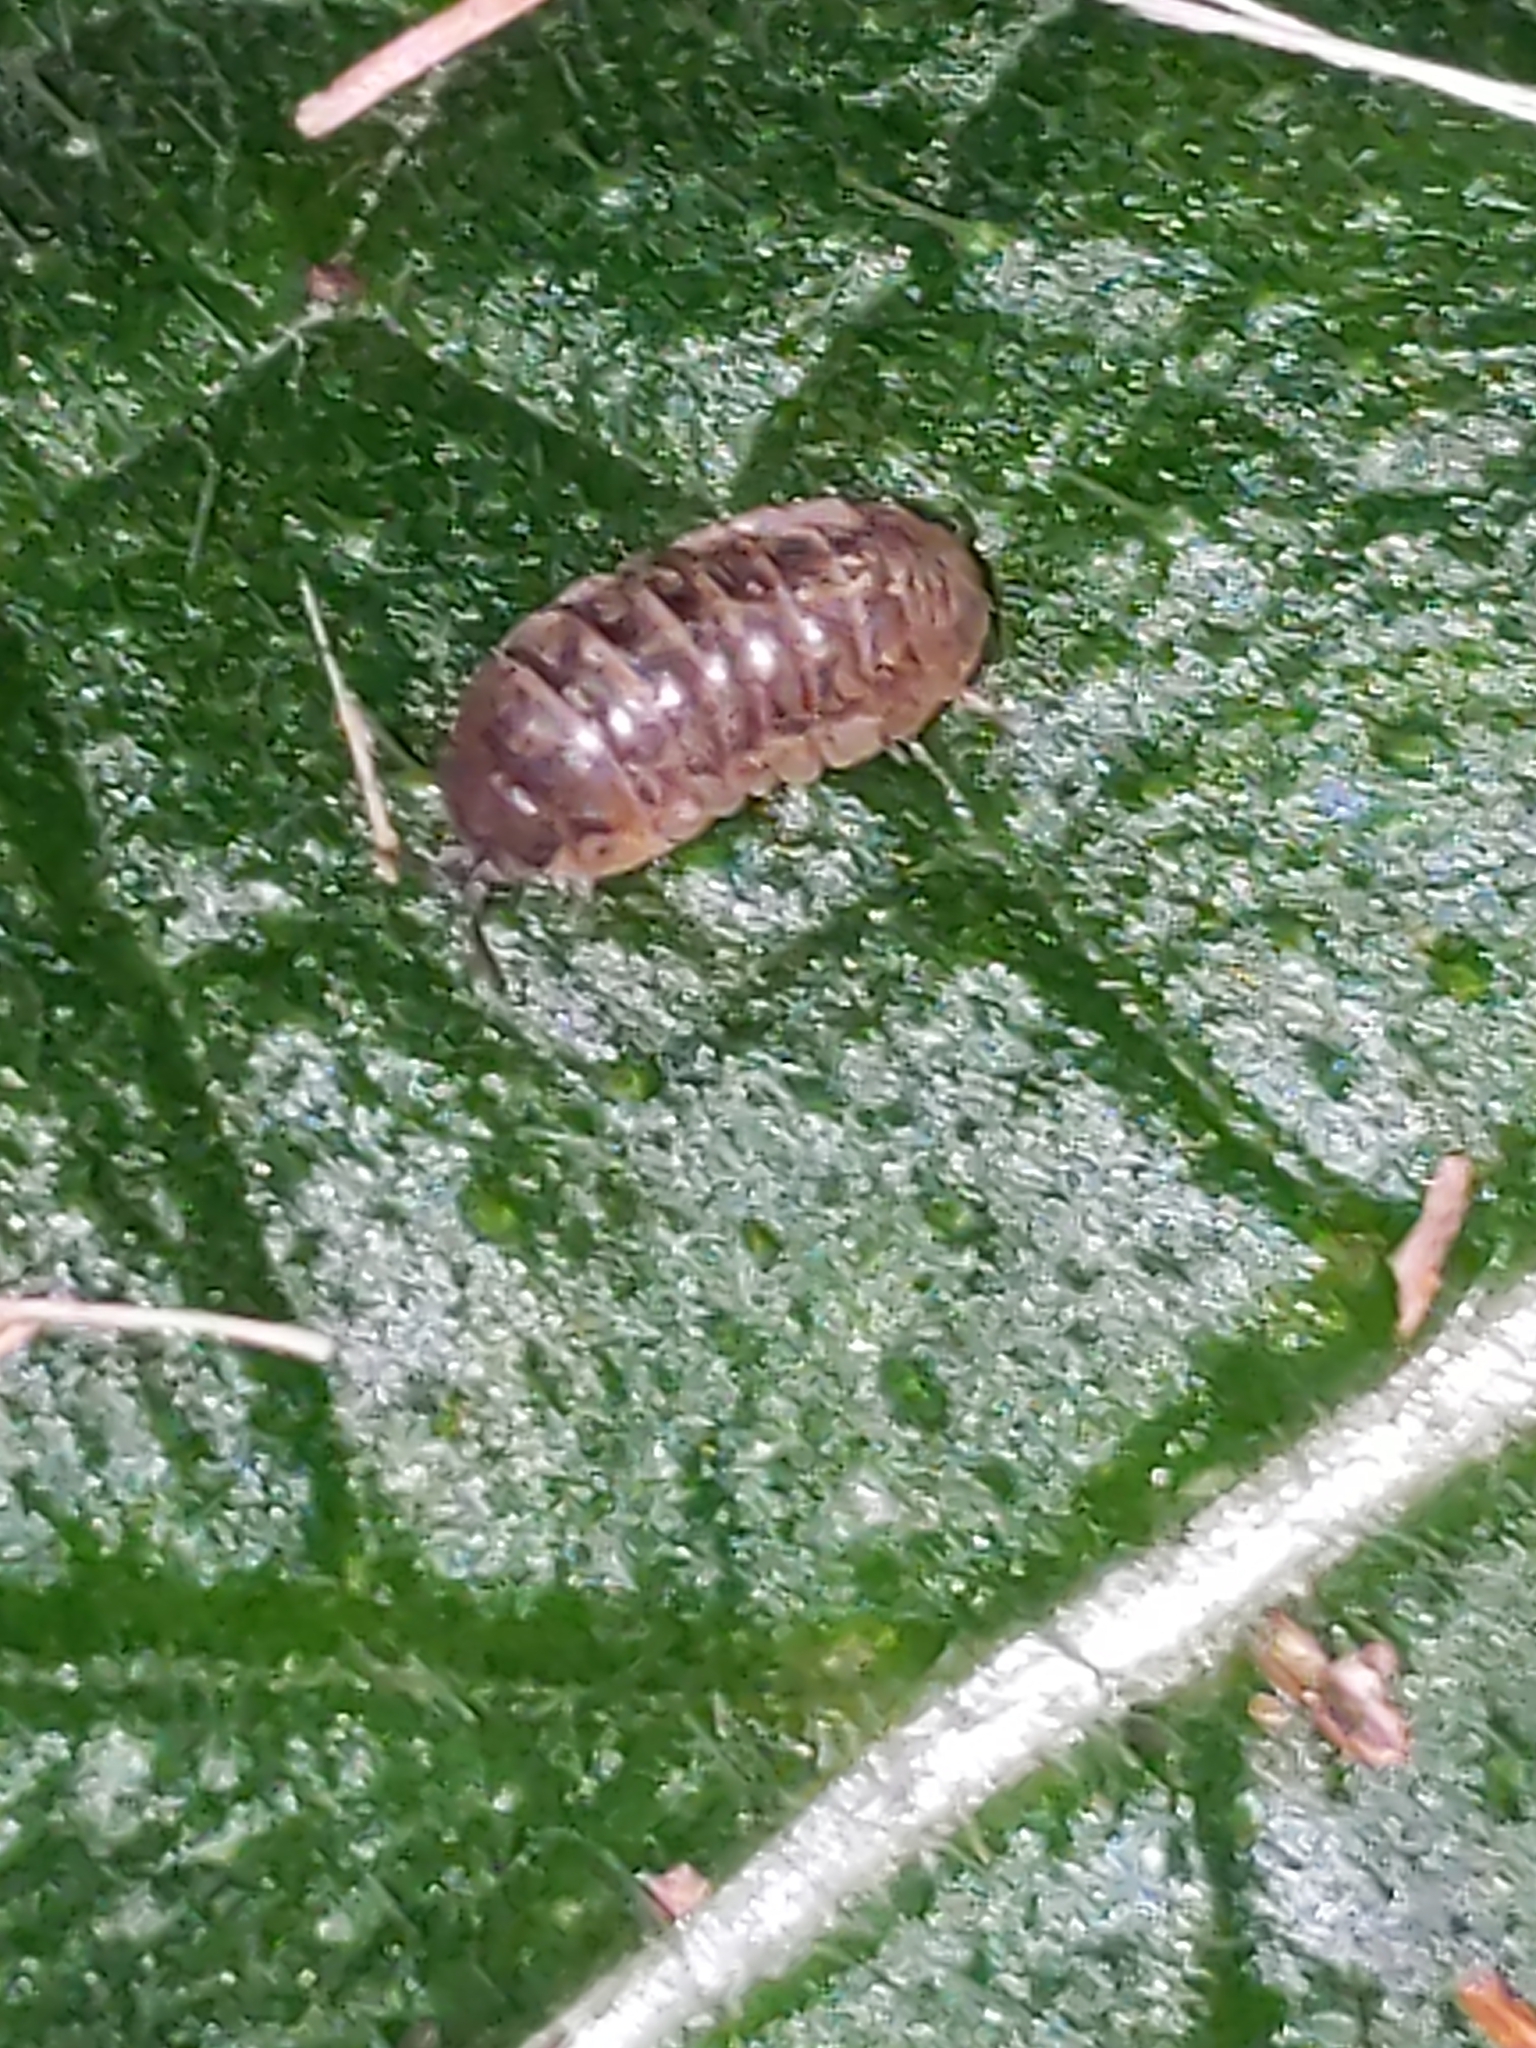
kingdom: Animalia
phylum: Arthropoda
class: Malacostraca
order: Isopoda
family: Armadillidiidae
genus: Armadillidium
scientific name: Armadillidium vulgare
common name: Common pill woodlouse
